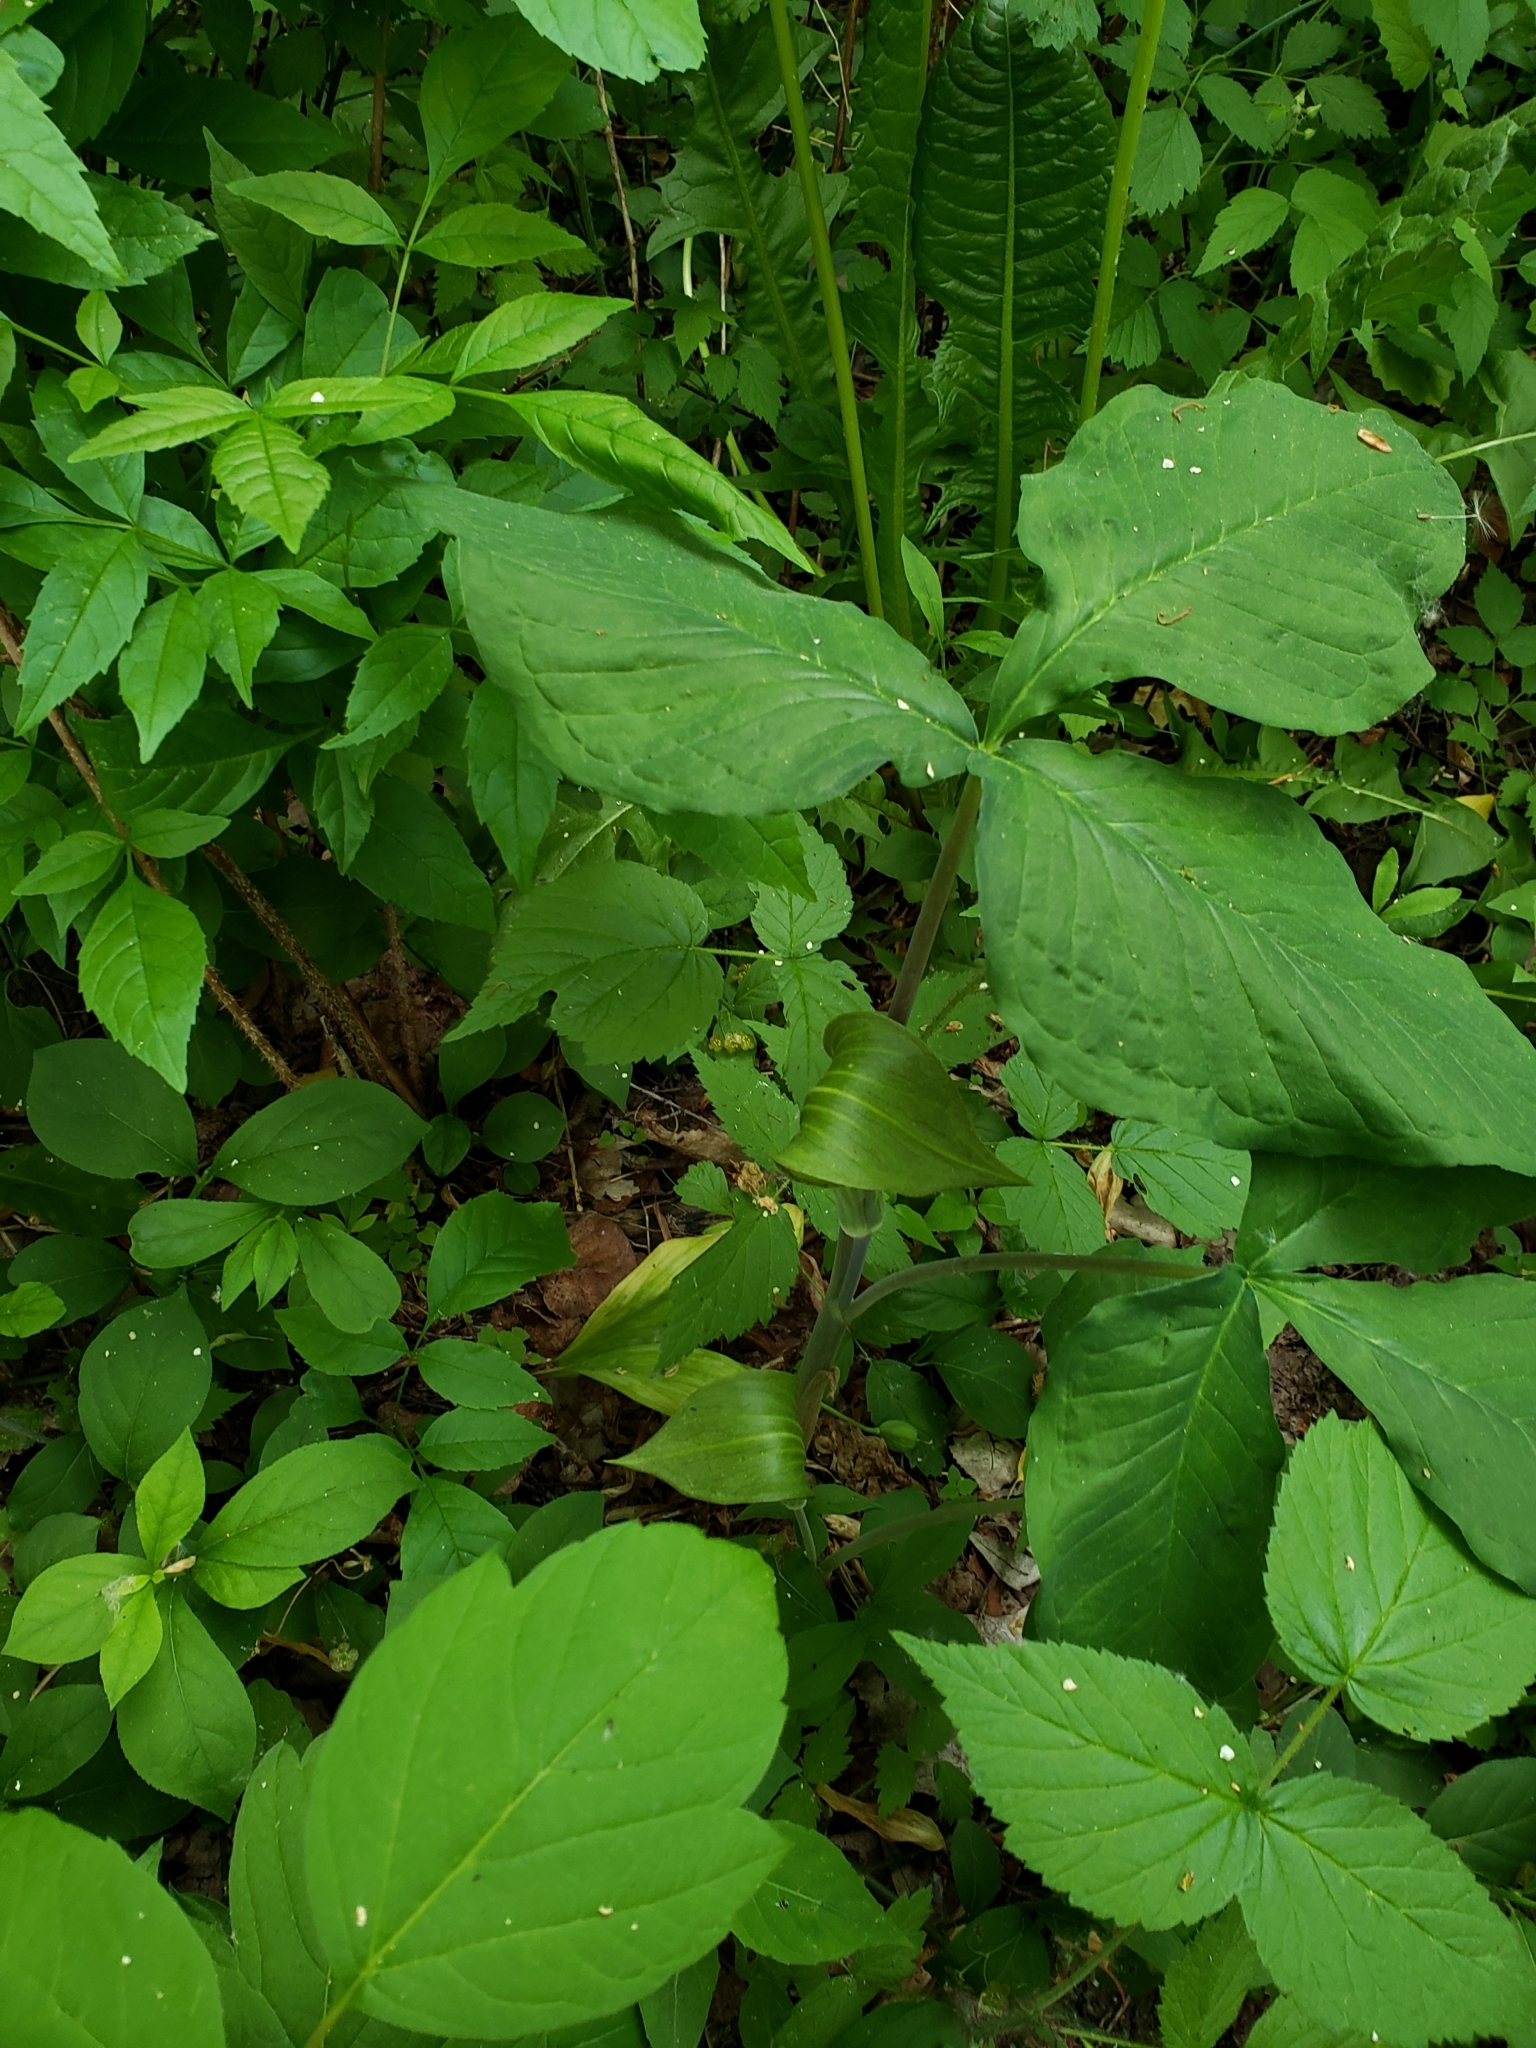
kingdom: Plantae
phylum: Tracheophyta
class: Liliopsida
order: Alismatales
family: Araceae
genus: Arisaema
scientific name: Arisaema triphyllum
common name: Jack-in-the-pulpit
